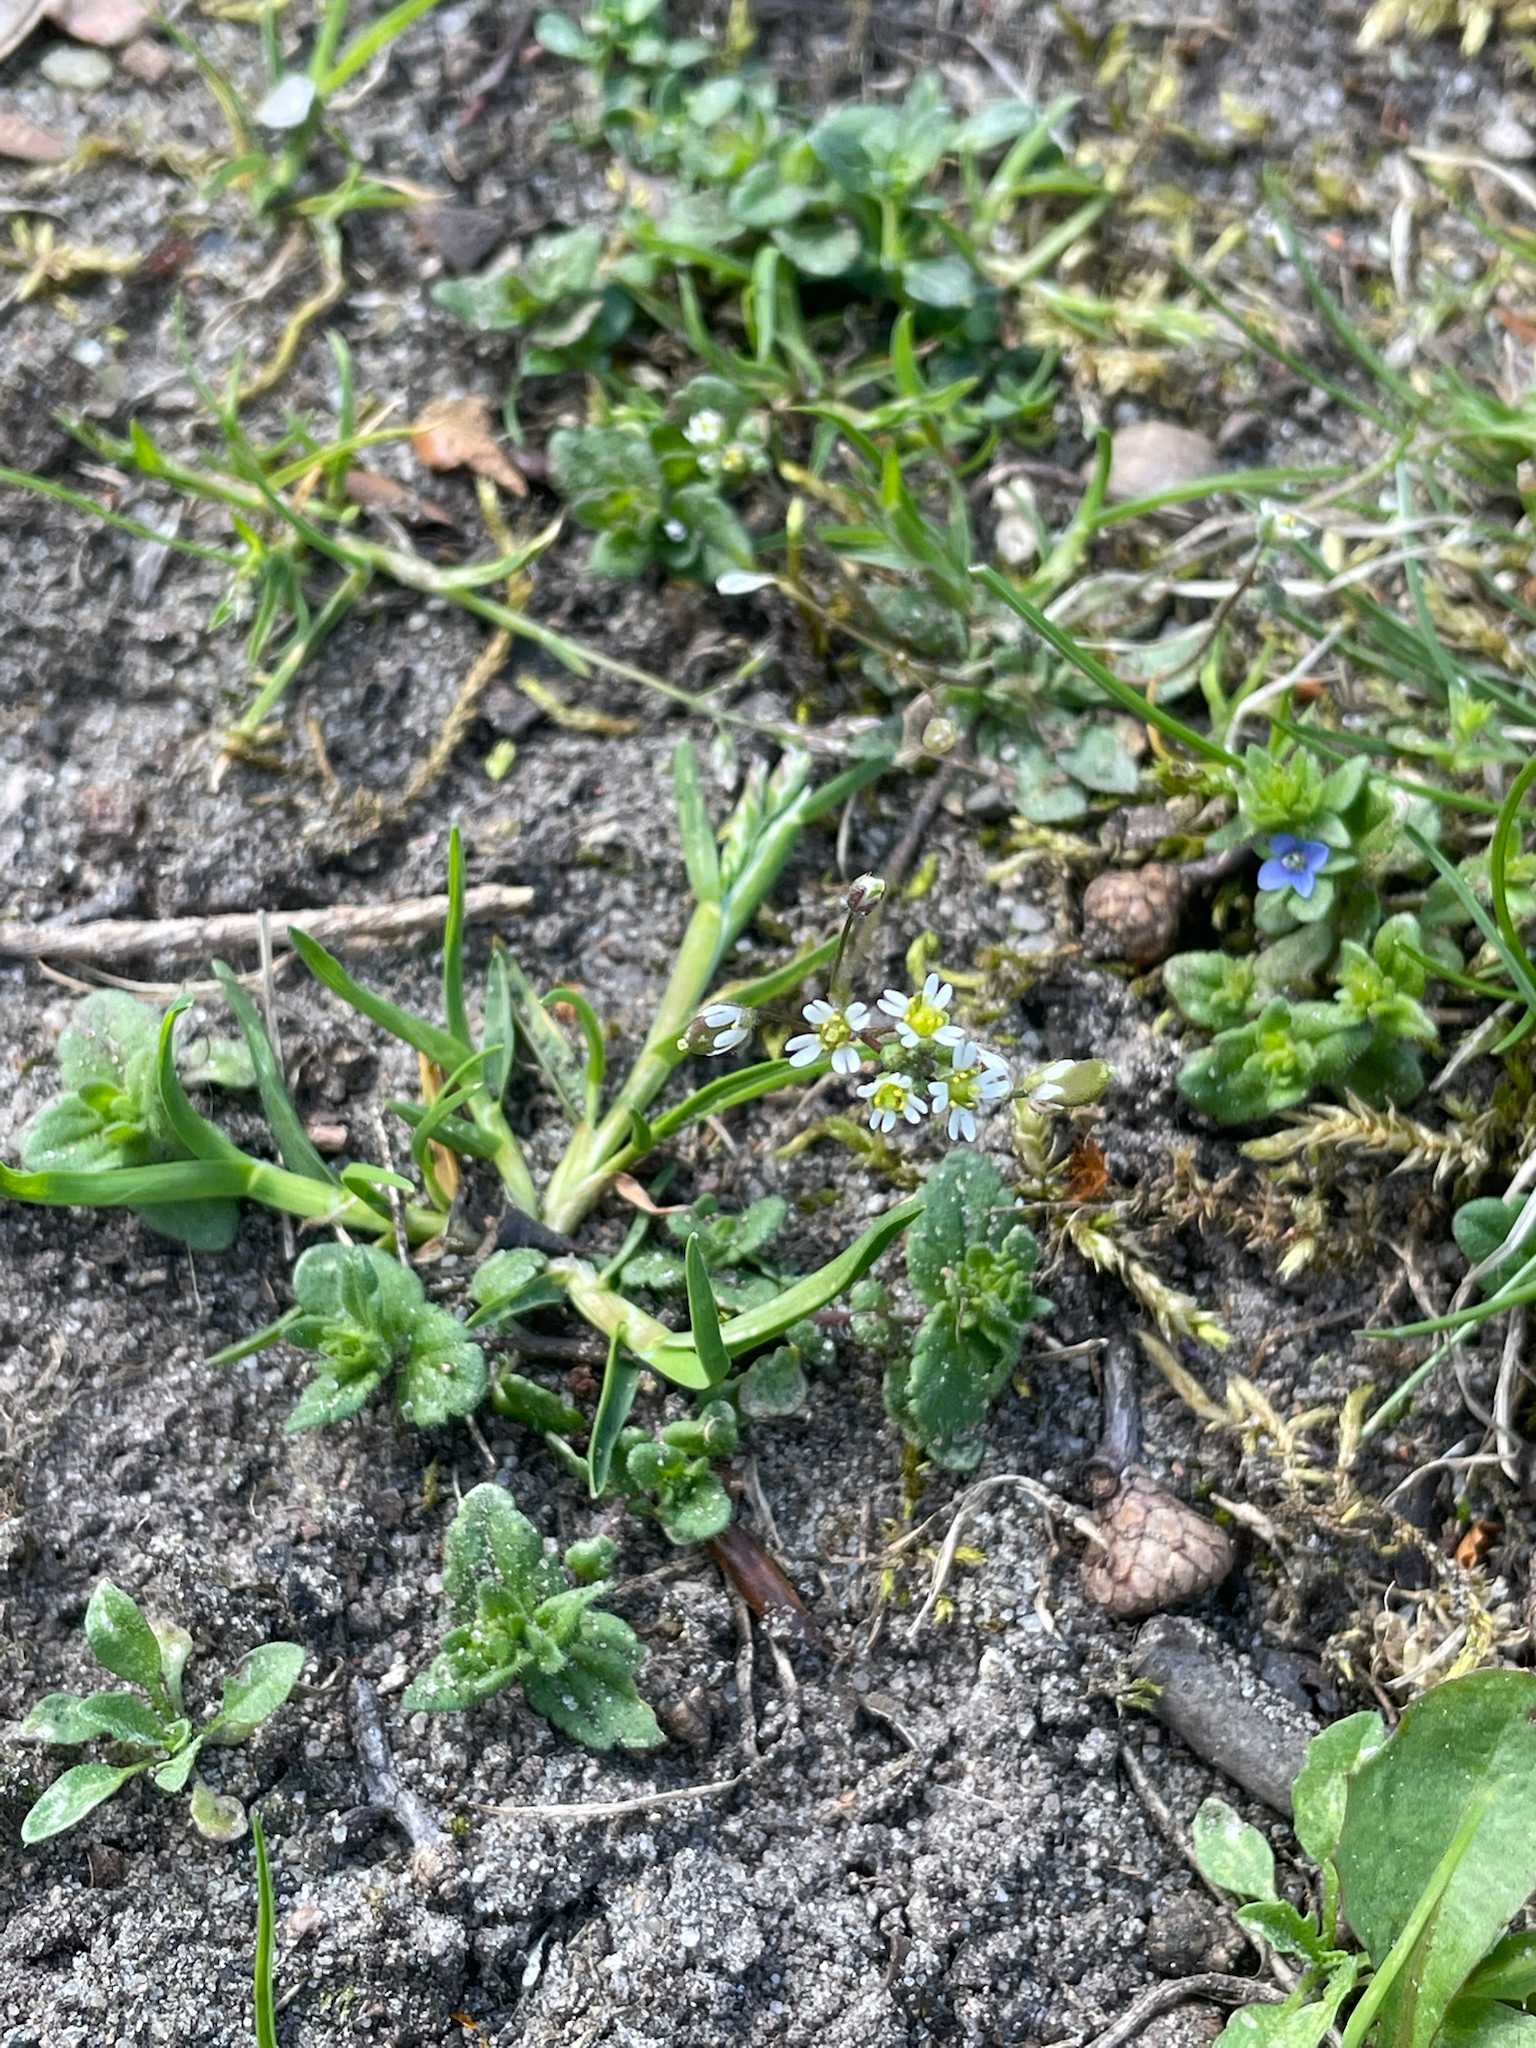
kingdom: Plantae
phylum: Tracheophyta
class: Magnoliopsida
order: Brassicales
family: Brassicaceae
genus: Draba
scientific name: Draba verna
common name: Spring draba
